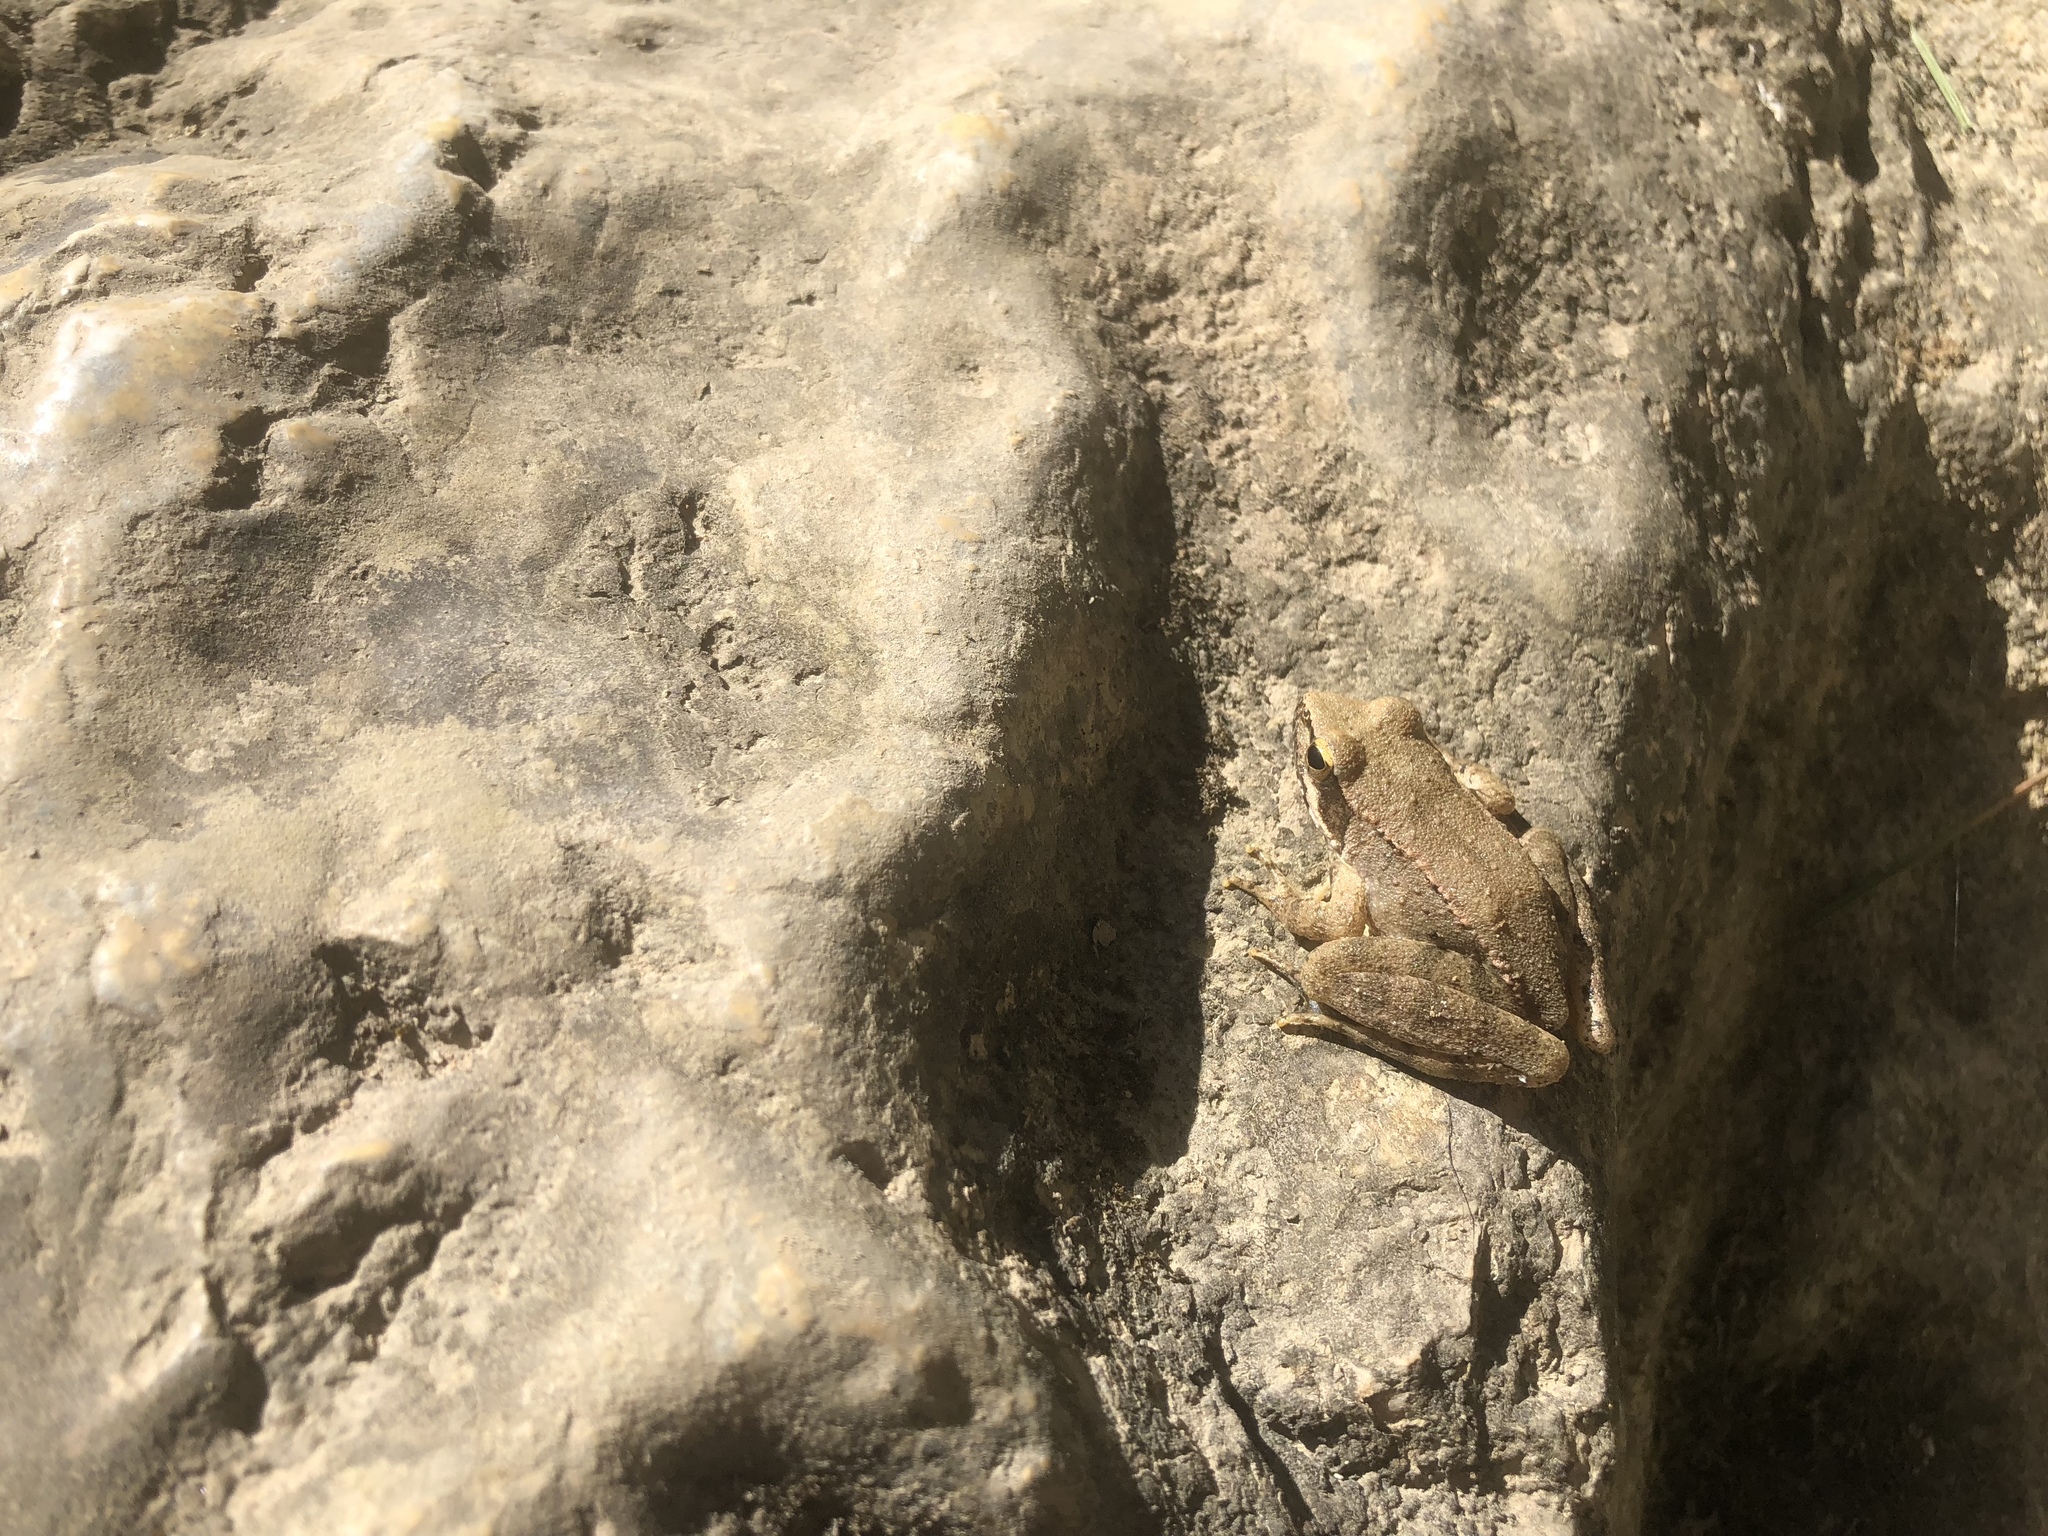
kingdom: Animalia
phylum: Chordata
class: Amphibia
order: Anura
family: Ranidae
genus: Rana
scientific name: Rana graeca
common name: Greek stream frog
